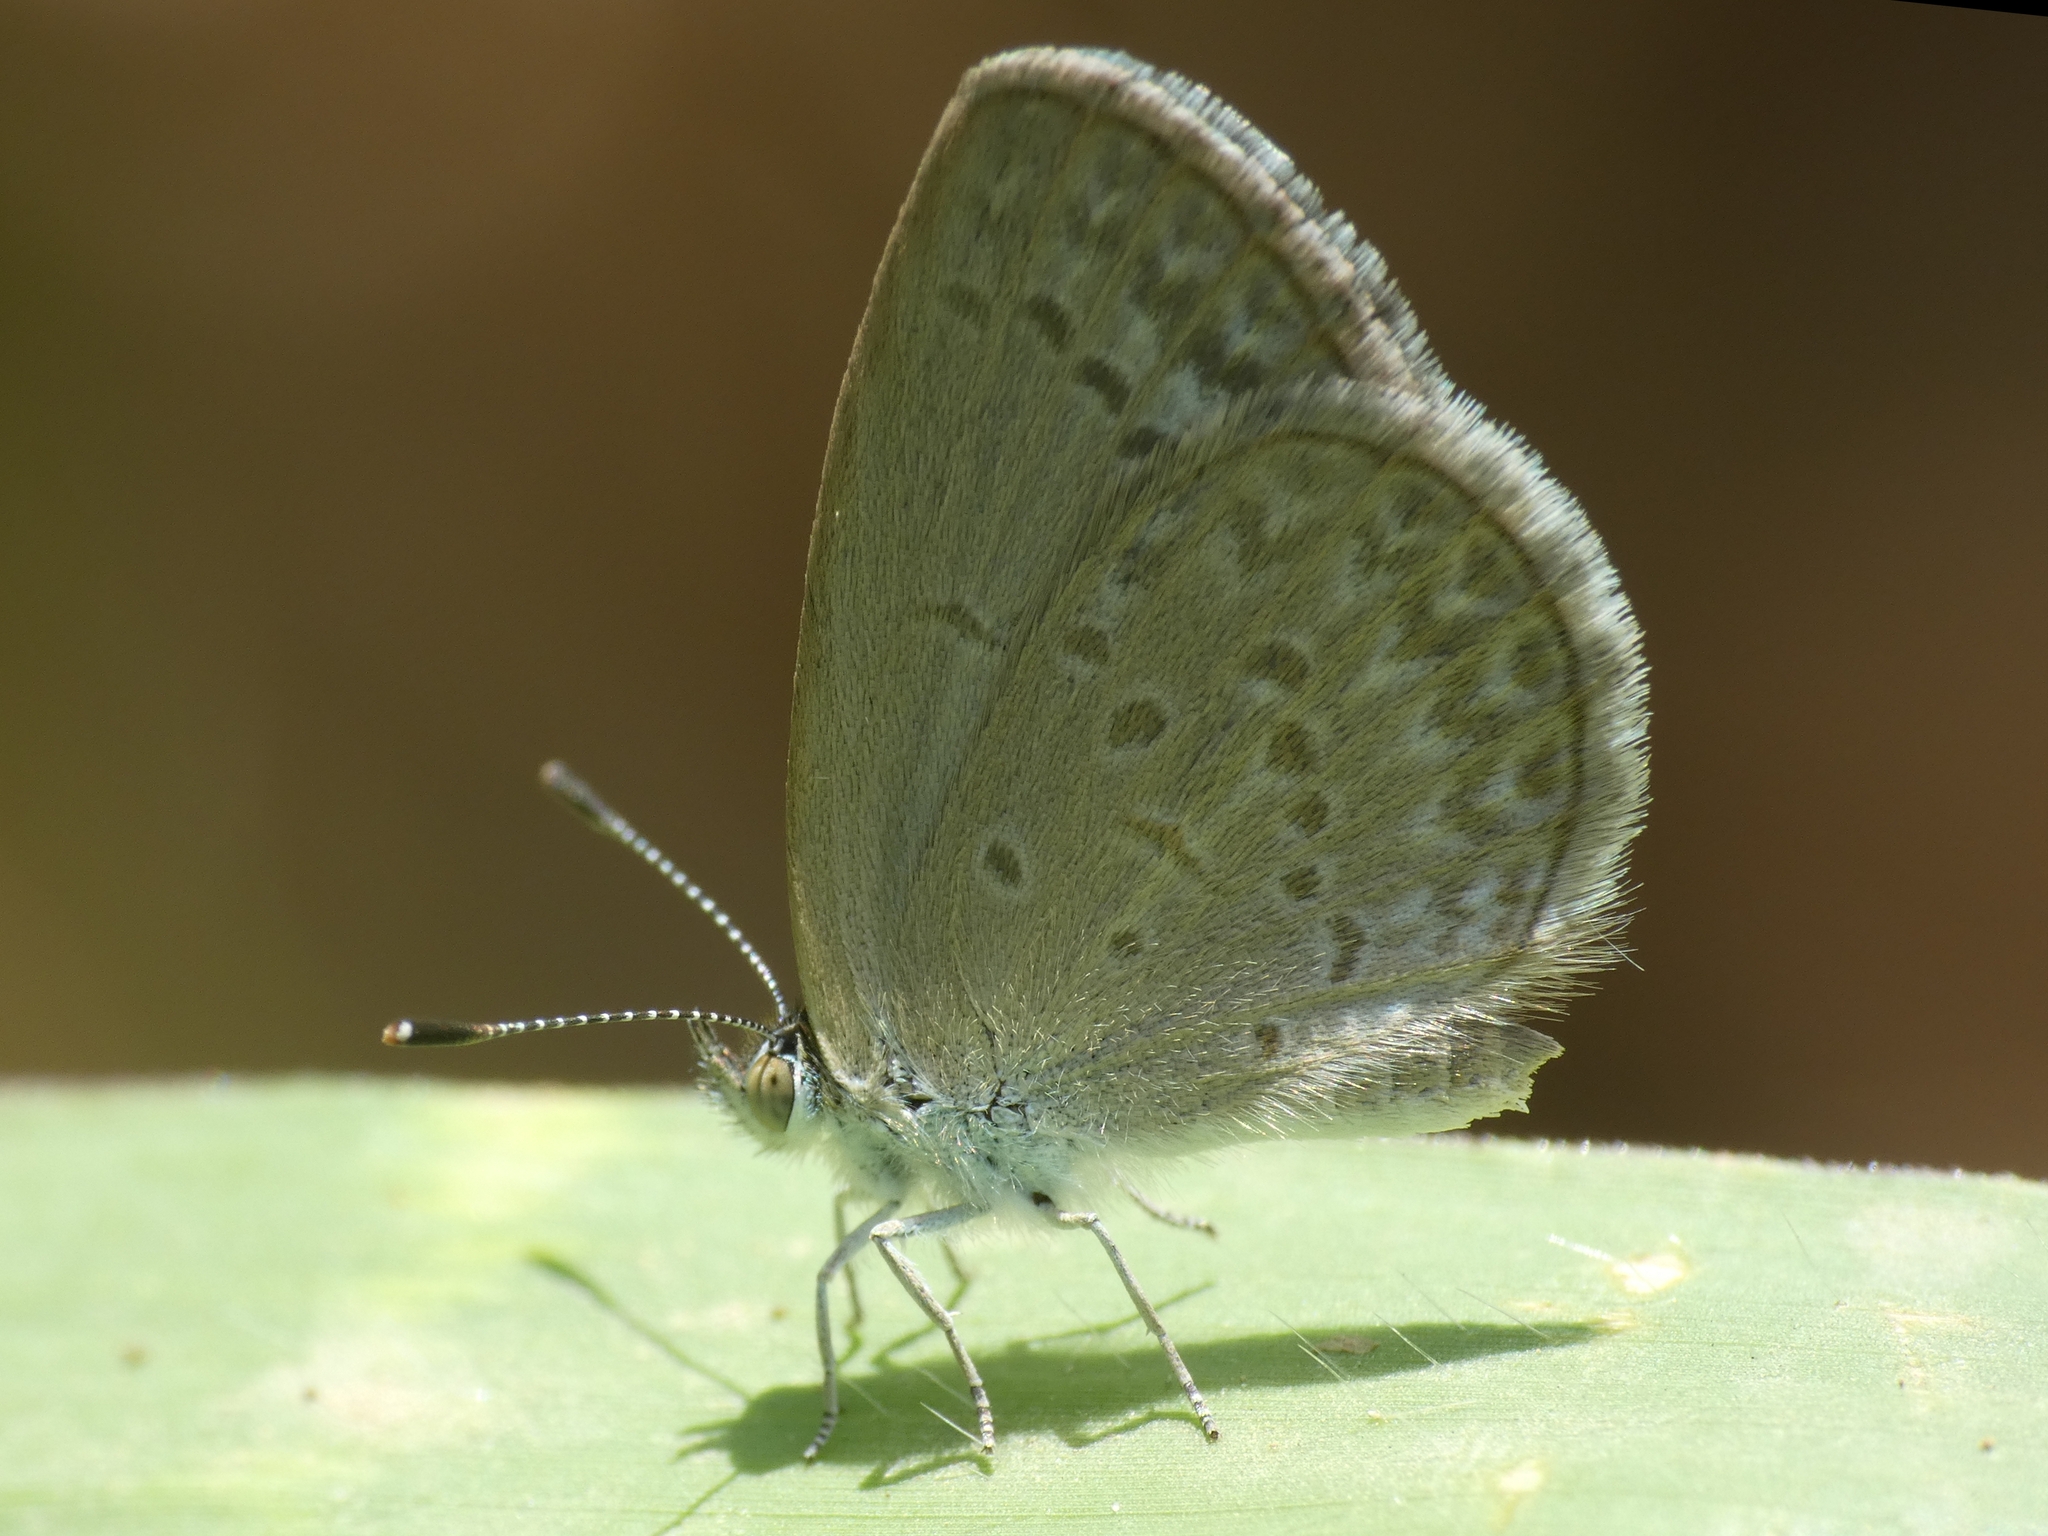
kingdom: Animalia
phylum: Arthropoda
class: Insecta
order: Lepidoptera
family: Lycaenidae
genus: Zizina
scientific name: Zizina otis
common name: Lesser grass blue
